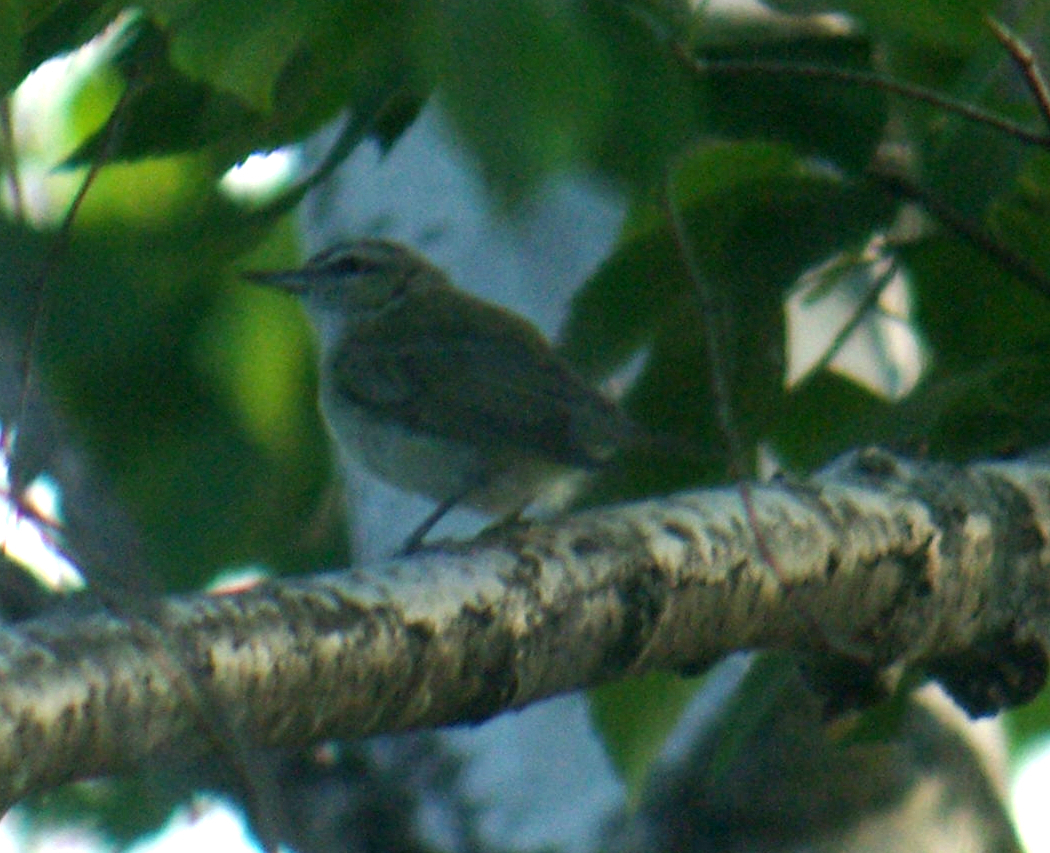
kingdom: Animalia
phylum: Chordata
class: Aves
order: Passeriformes
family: Vireonidae
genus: Vireo
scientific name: Vireo olivaceus
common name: Red-eyed vireo
